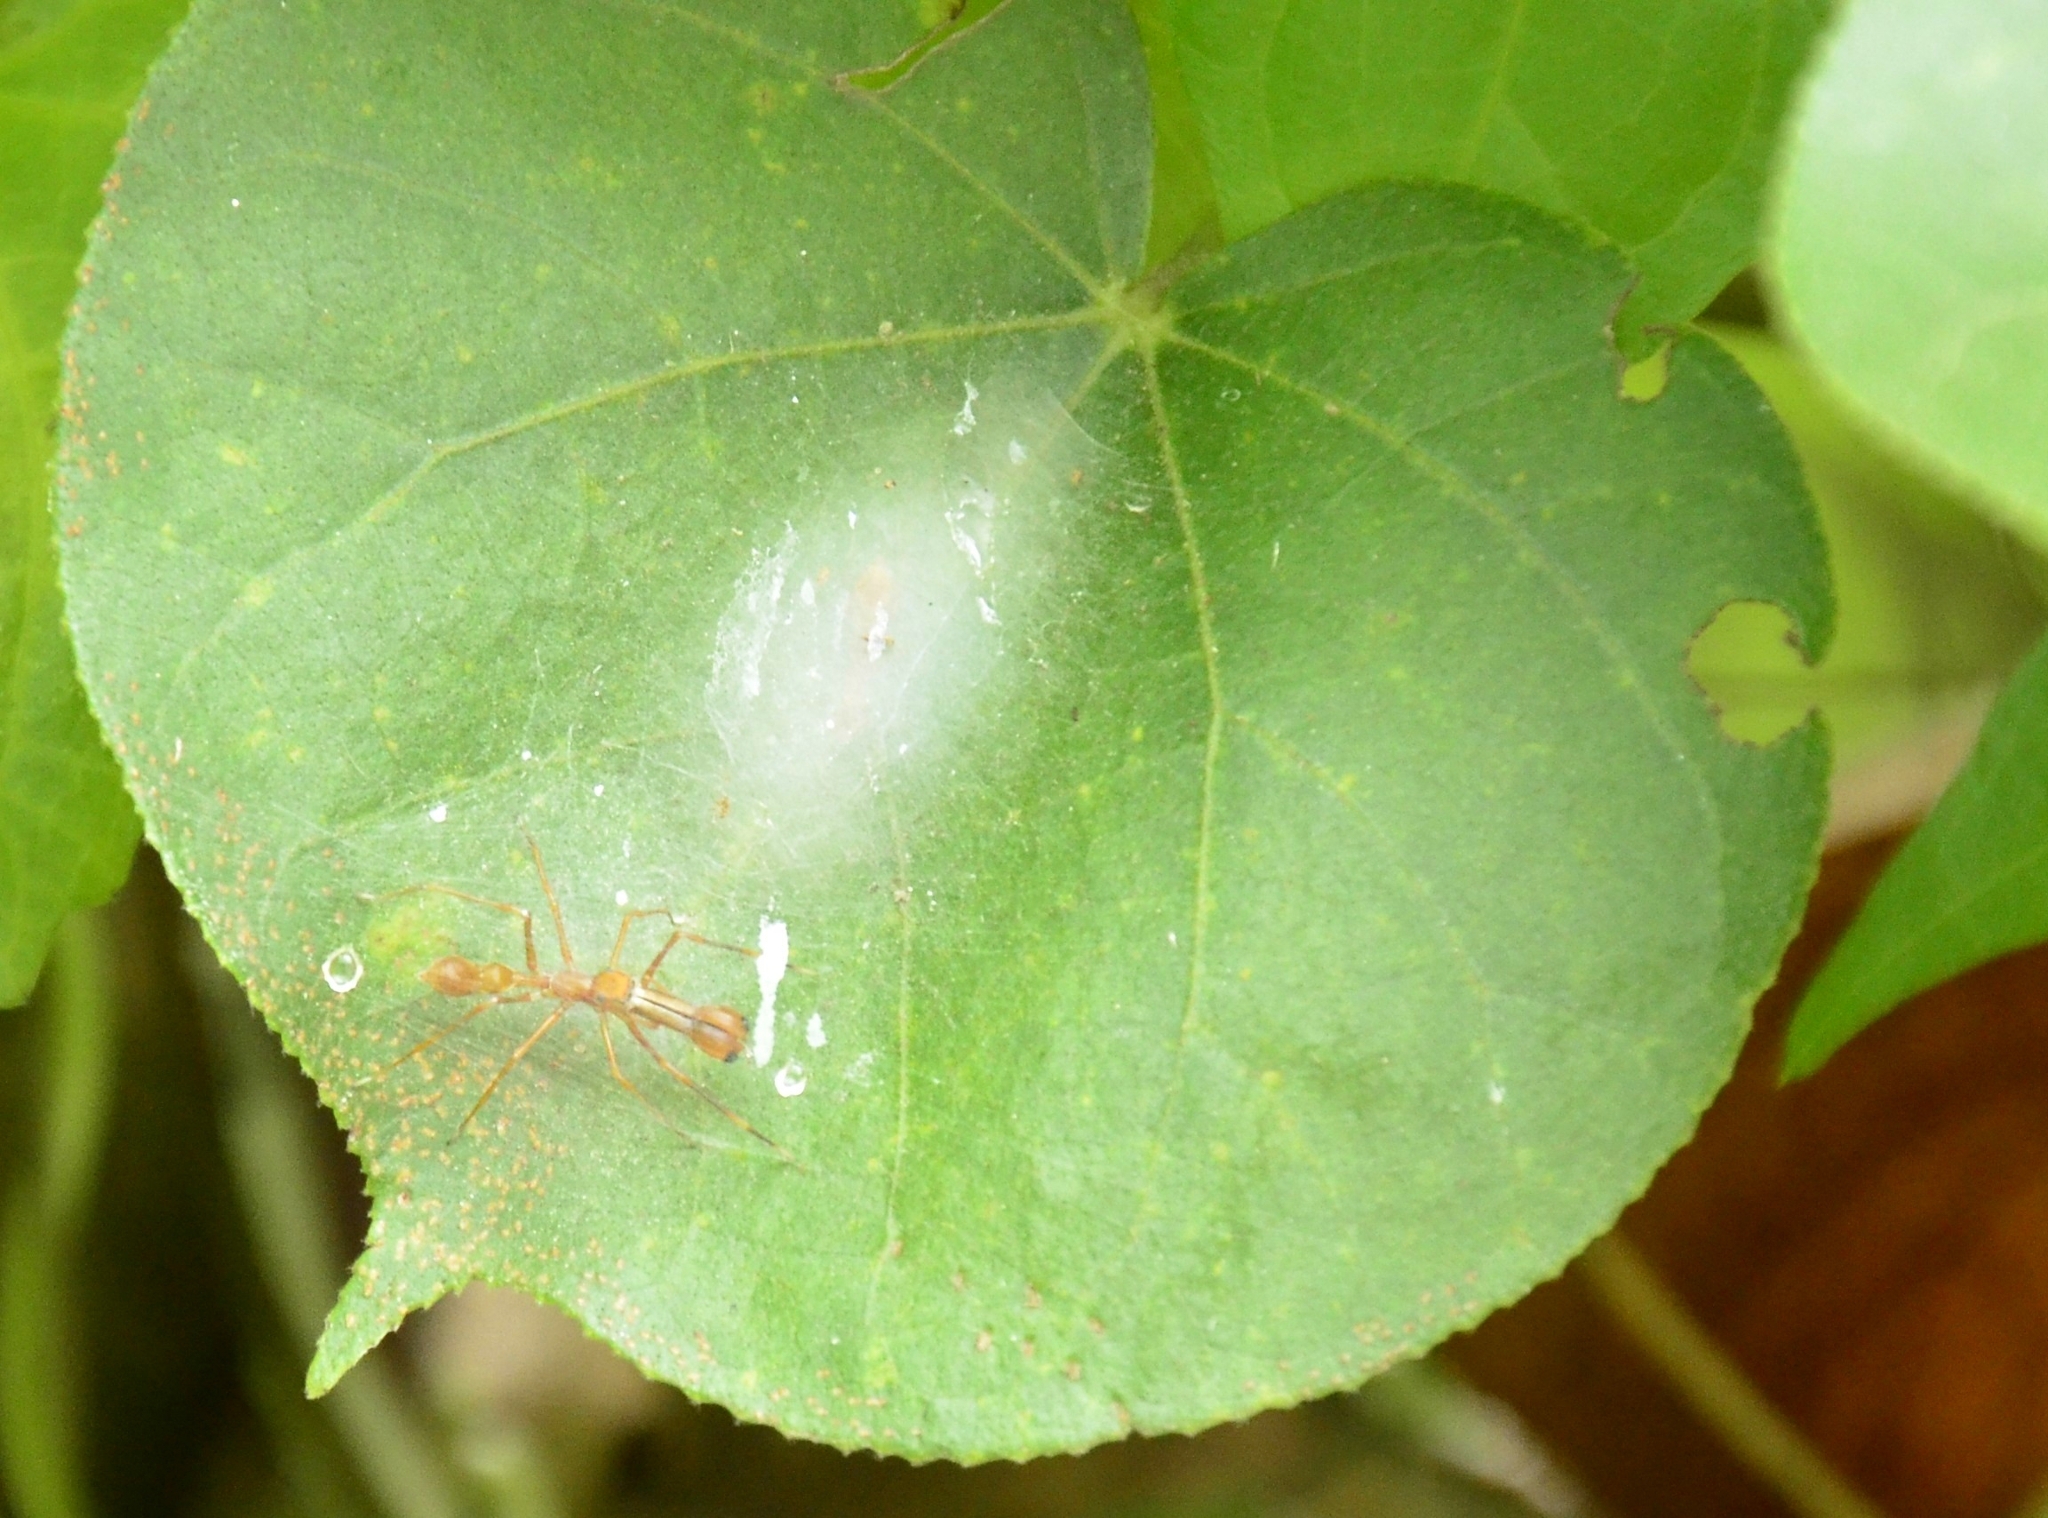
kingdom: Animalia
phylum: Arthropoda
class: Arachnida
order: Araneae
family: Salticidae
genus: Myrmaplata
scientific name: Myrmaplata plataleoides
